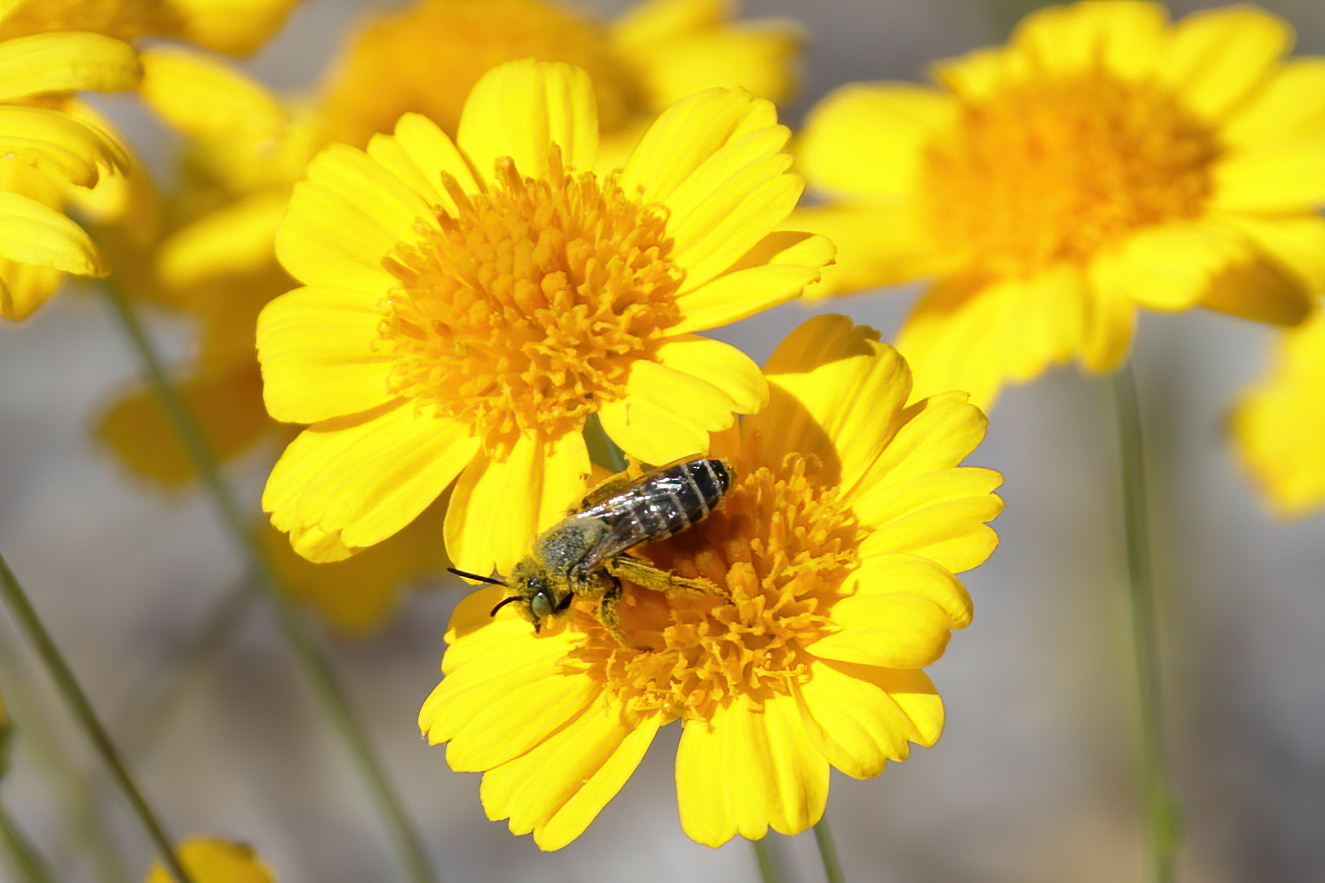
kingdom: Animalia
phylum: Arthropoda
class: Insecta
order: Hymenoptera
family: Melittidae
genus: Hesperapis
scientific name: Hesperapis oraria
